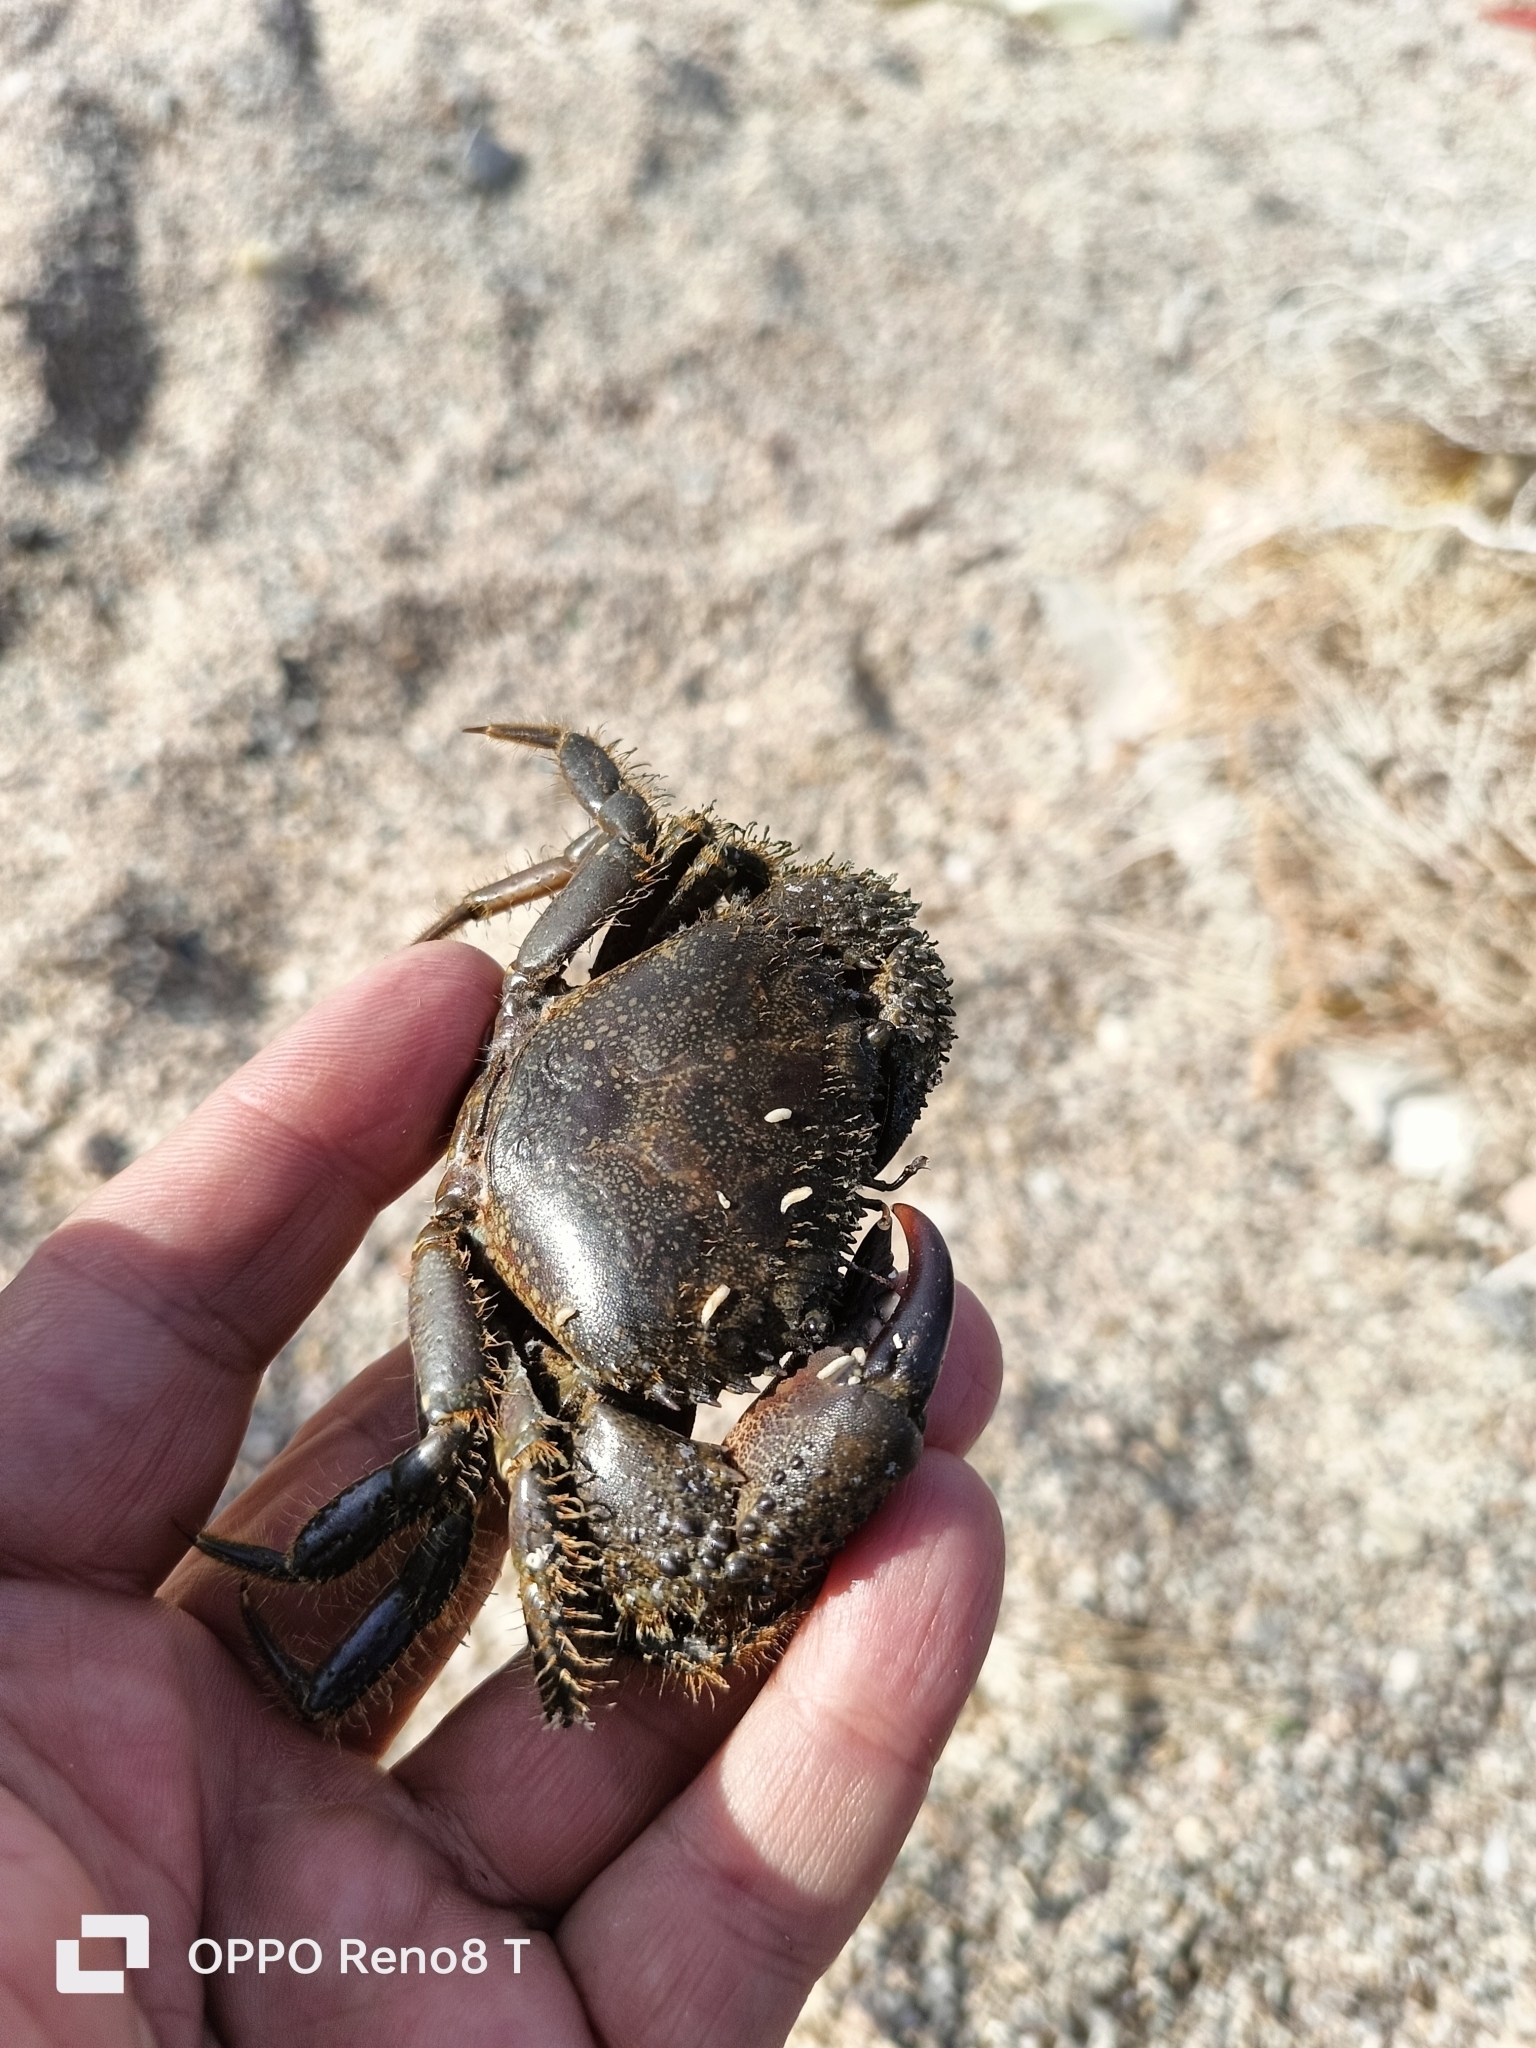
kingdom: Animalia
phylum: Arthropoda
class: Malacostraca
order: Decapoda
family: Eriphiidae
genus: Eriphia
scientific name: Eriphia verrucosa
